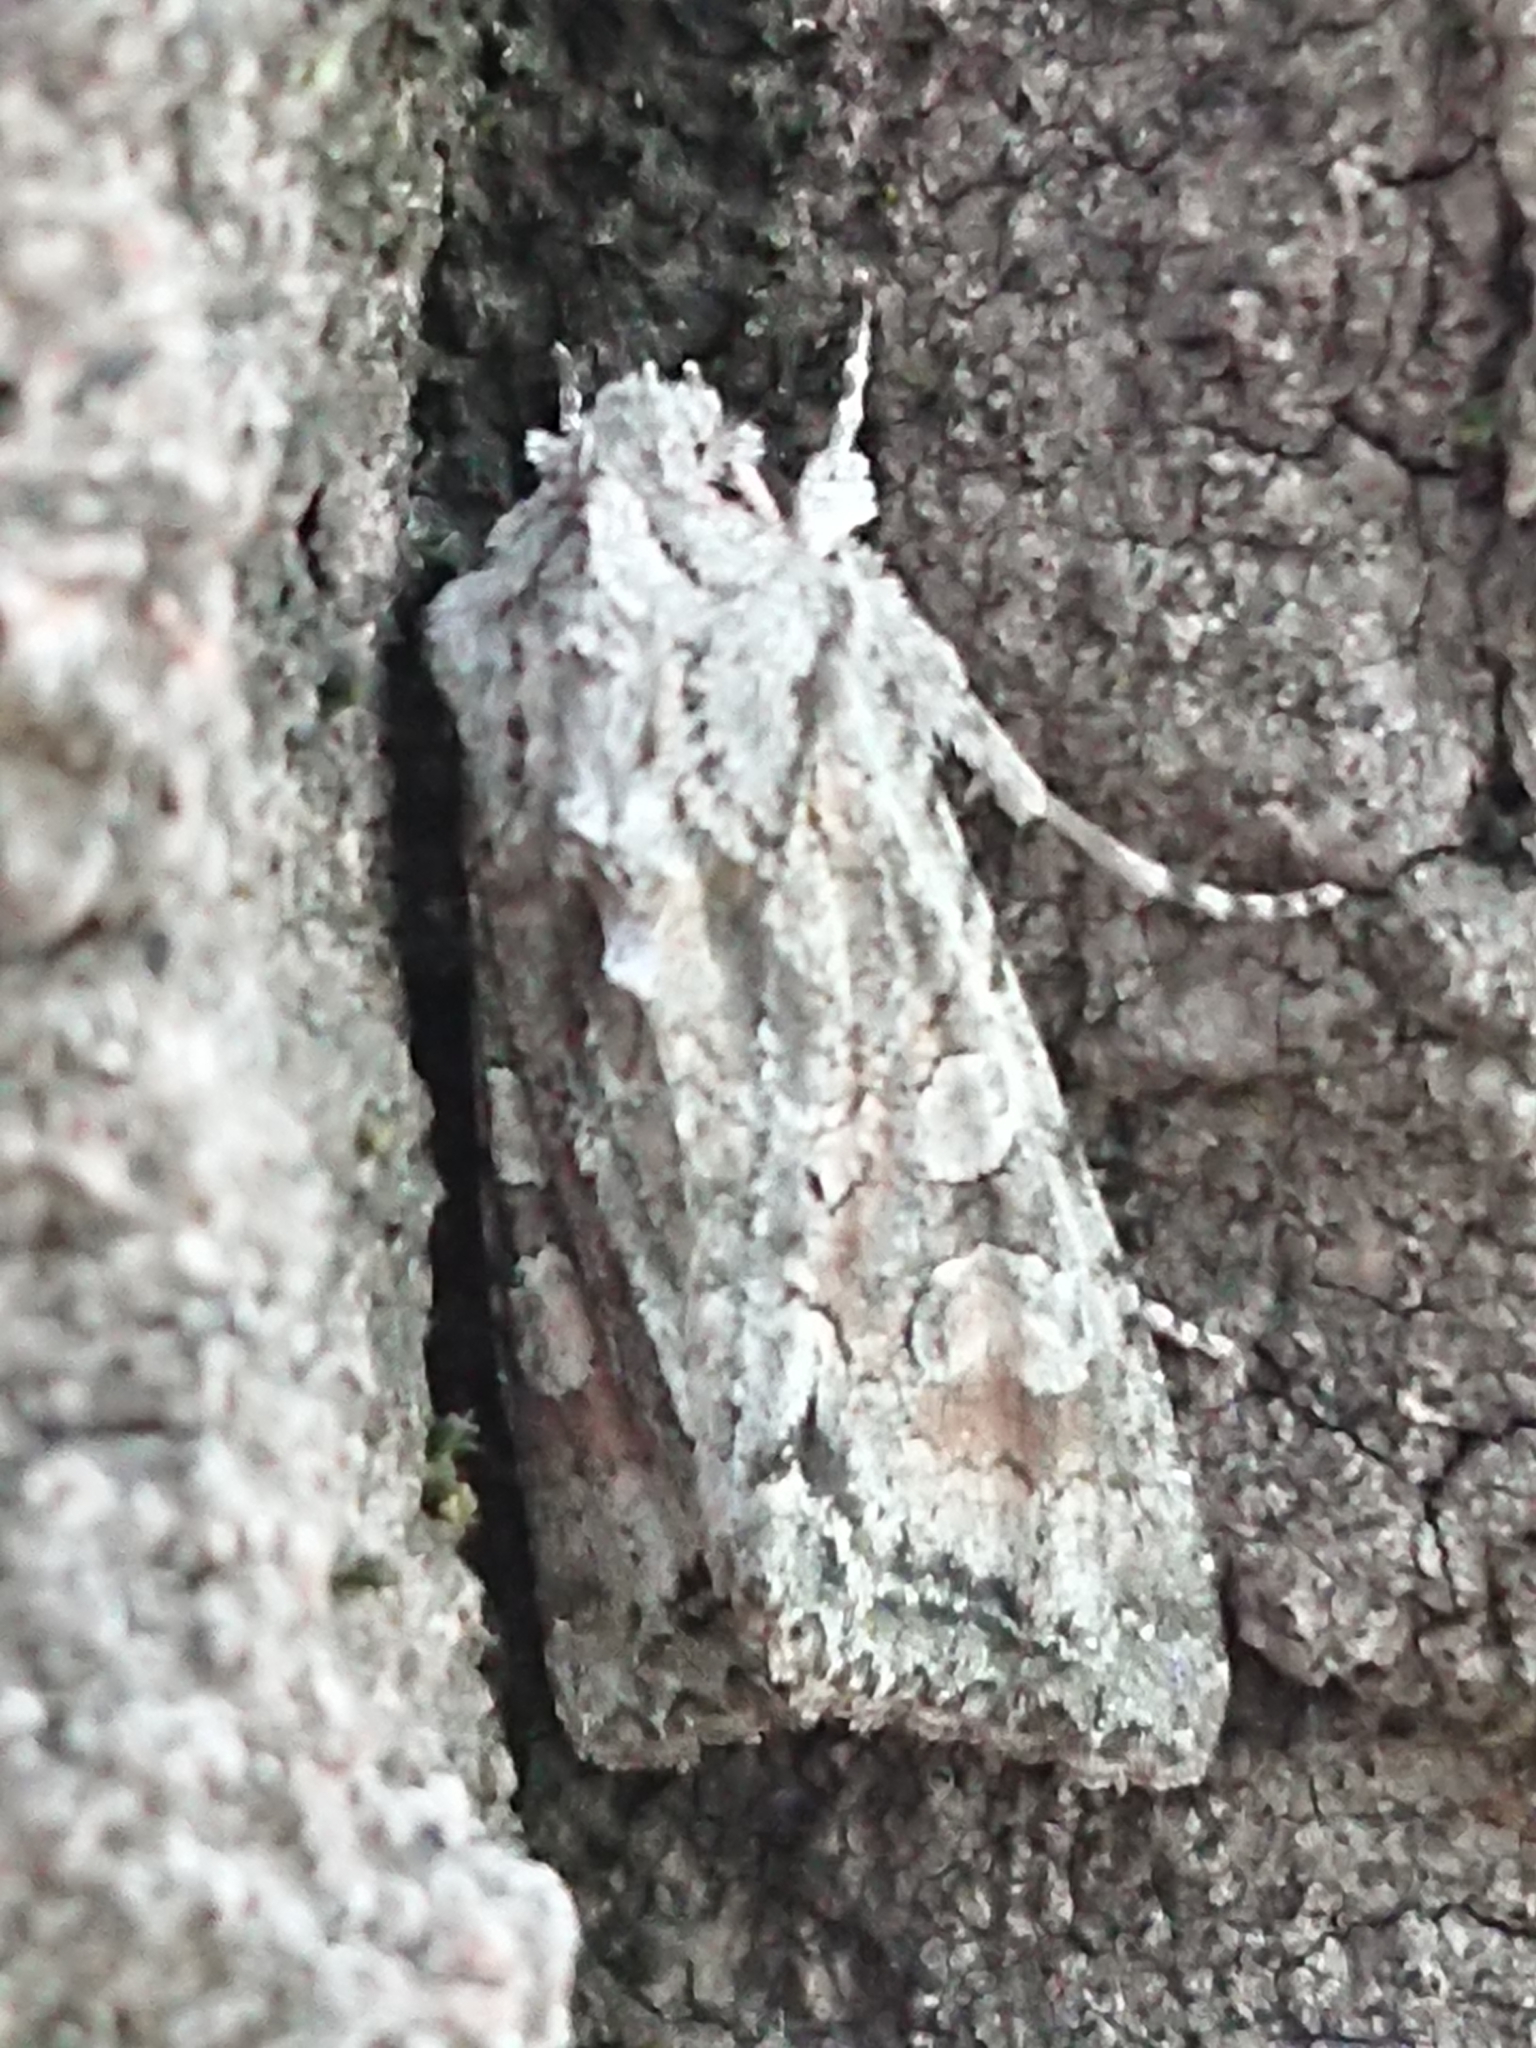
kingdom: Animalia
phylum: Arthropoda
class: Insecta
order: Lepidoptera
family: Noctuidae
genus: Ichneutica
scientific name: Ichneutica mutans
